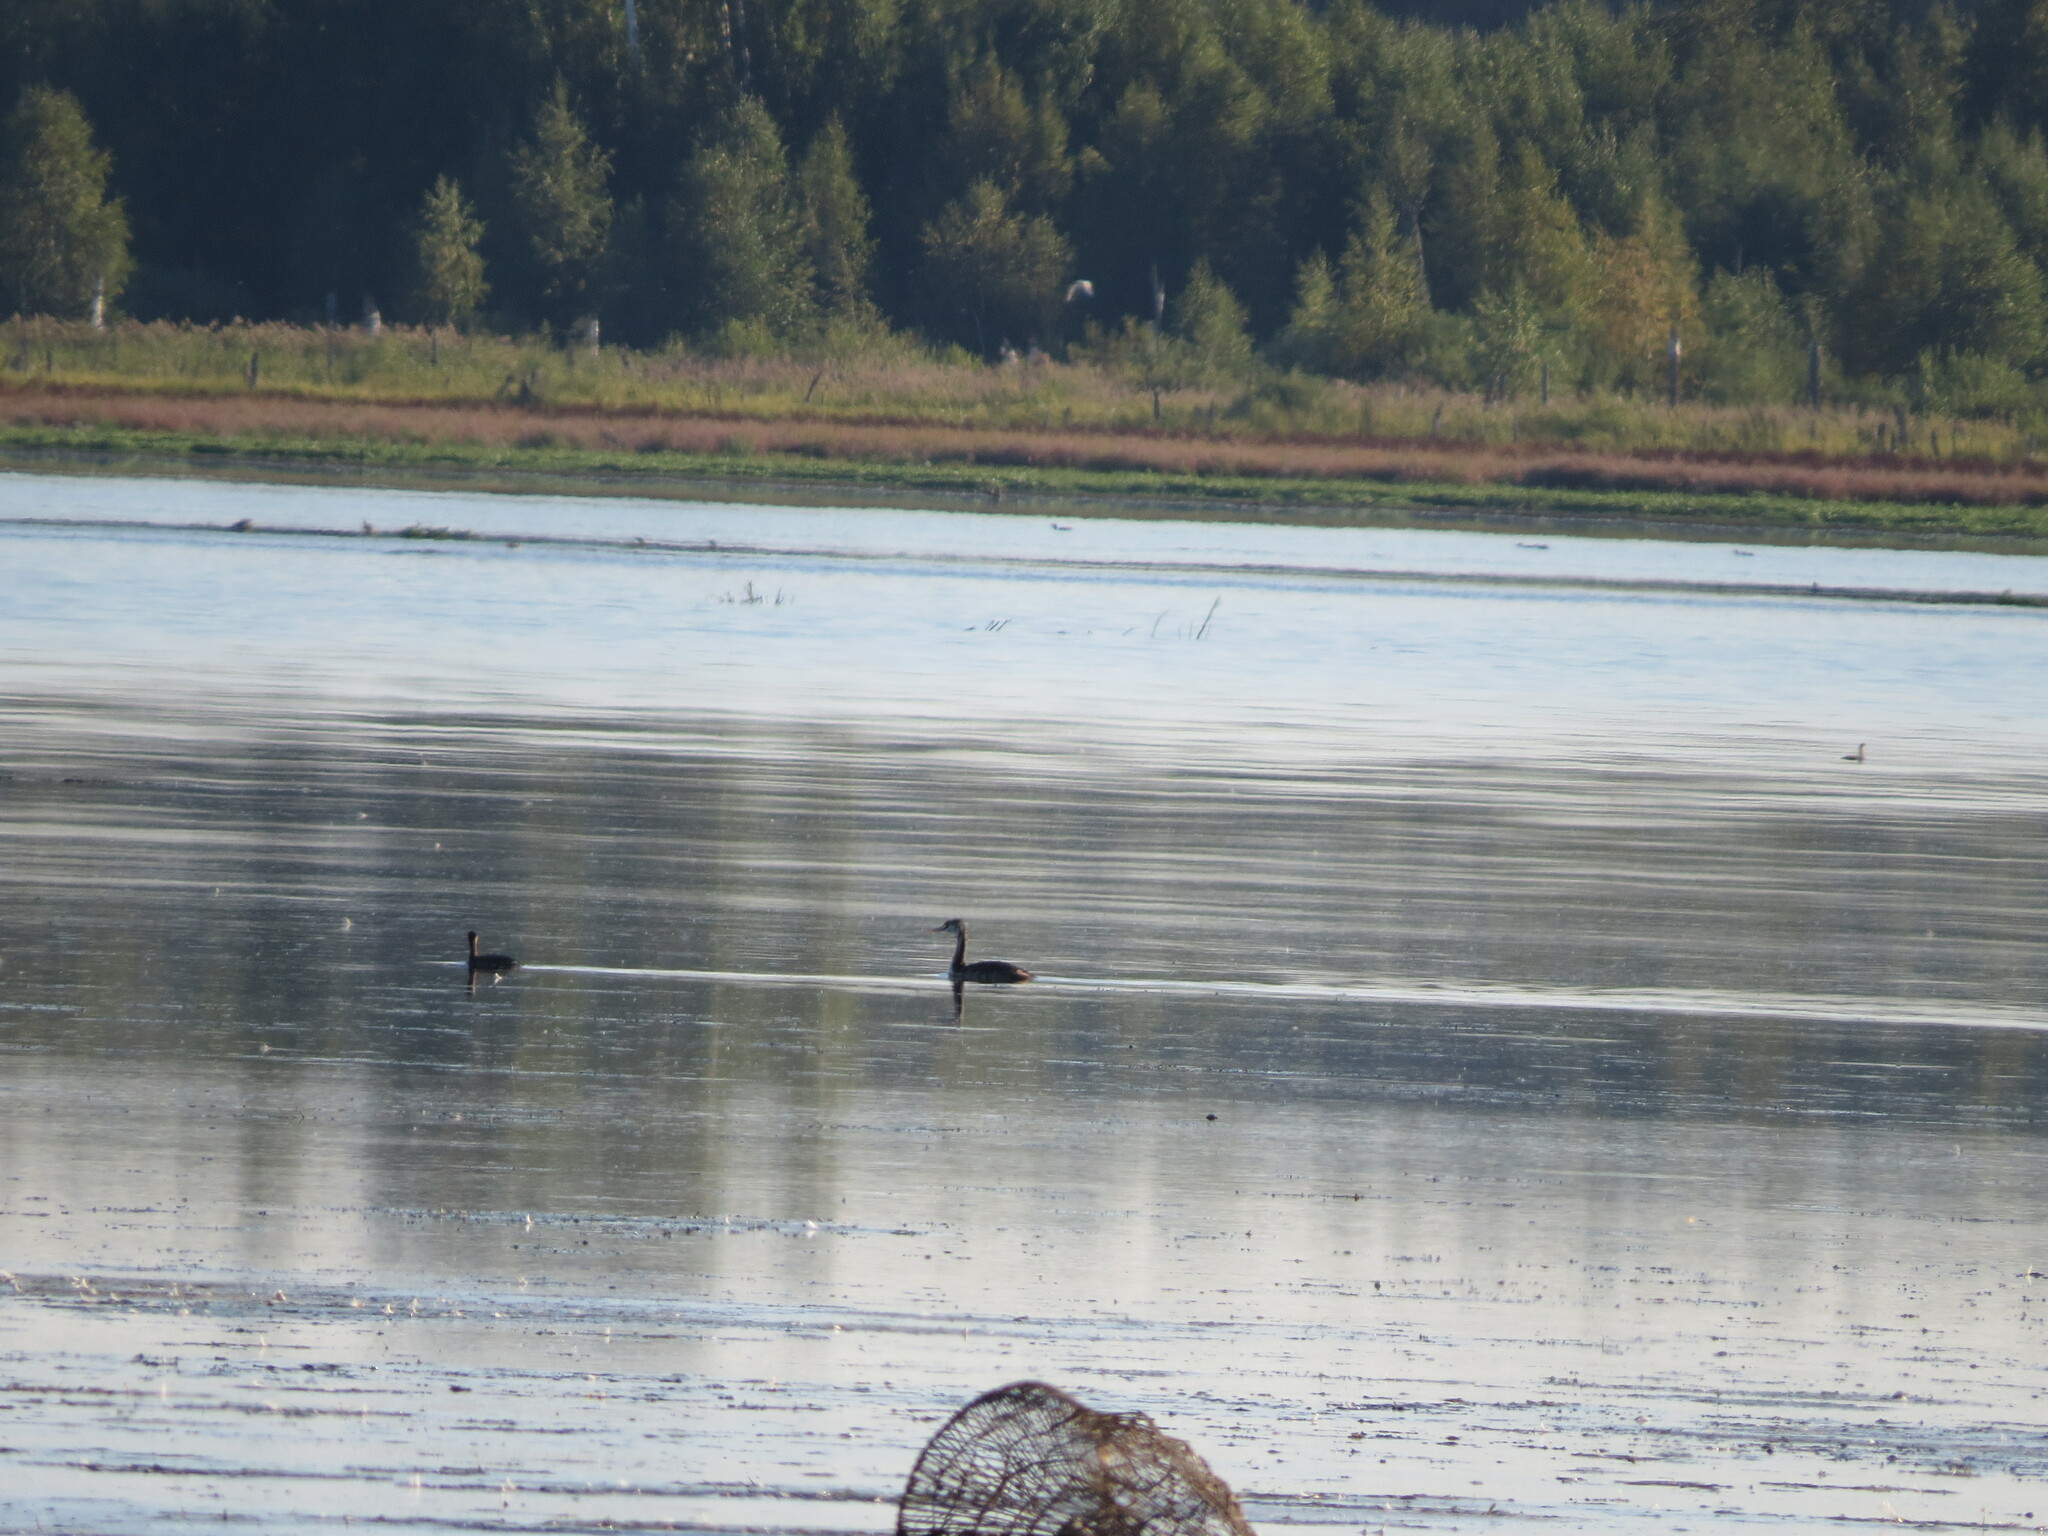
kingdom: Animalia
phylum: Chordata
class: Aves
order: Podicipediformes
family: Podicipedidae
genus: Podiceps
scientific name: Podiceps cristatus
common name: Great crested grebe
